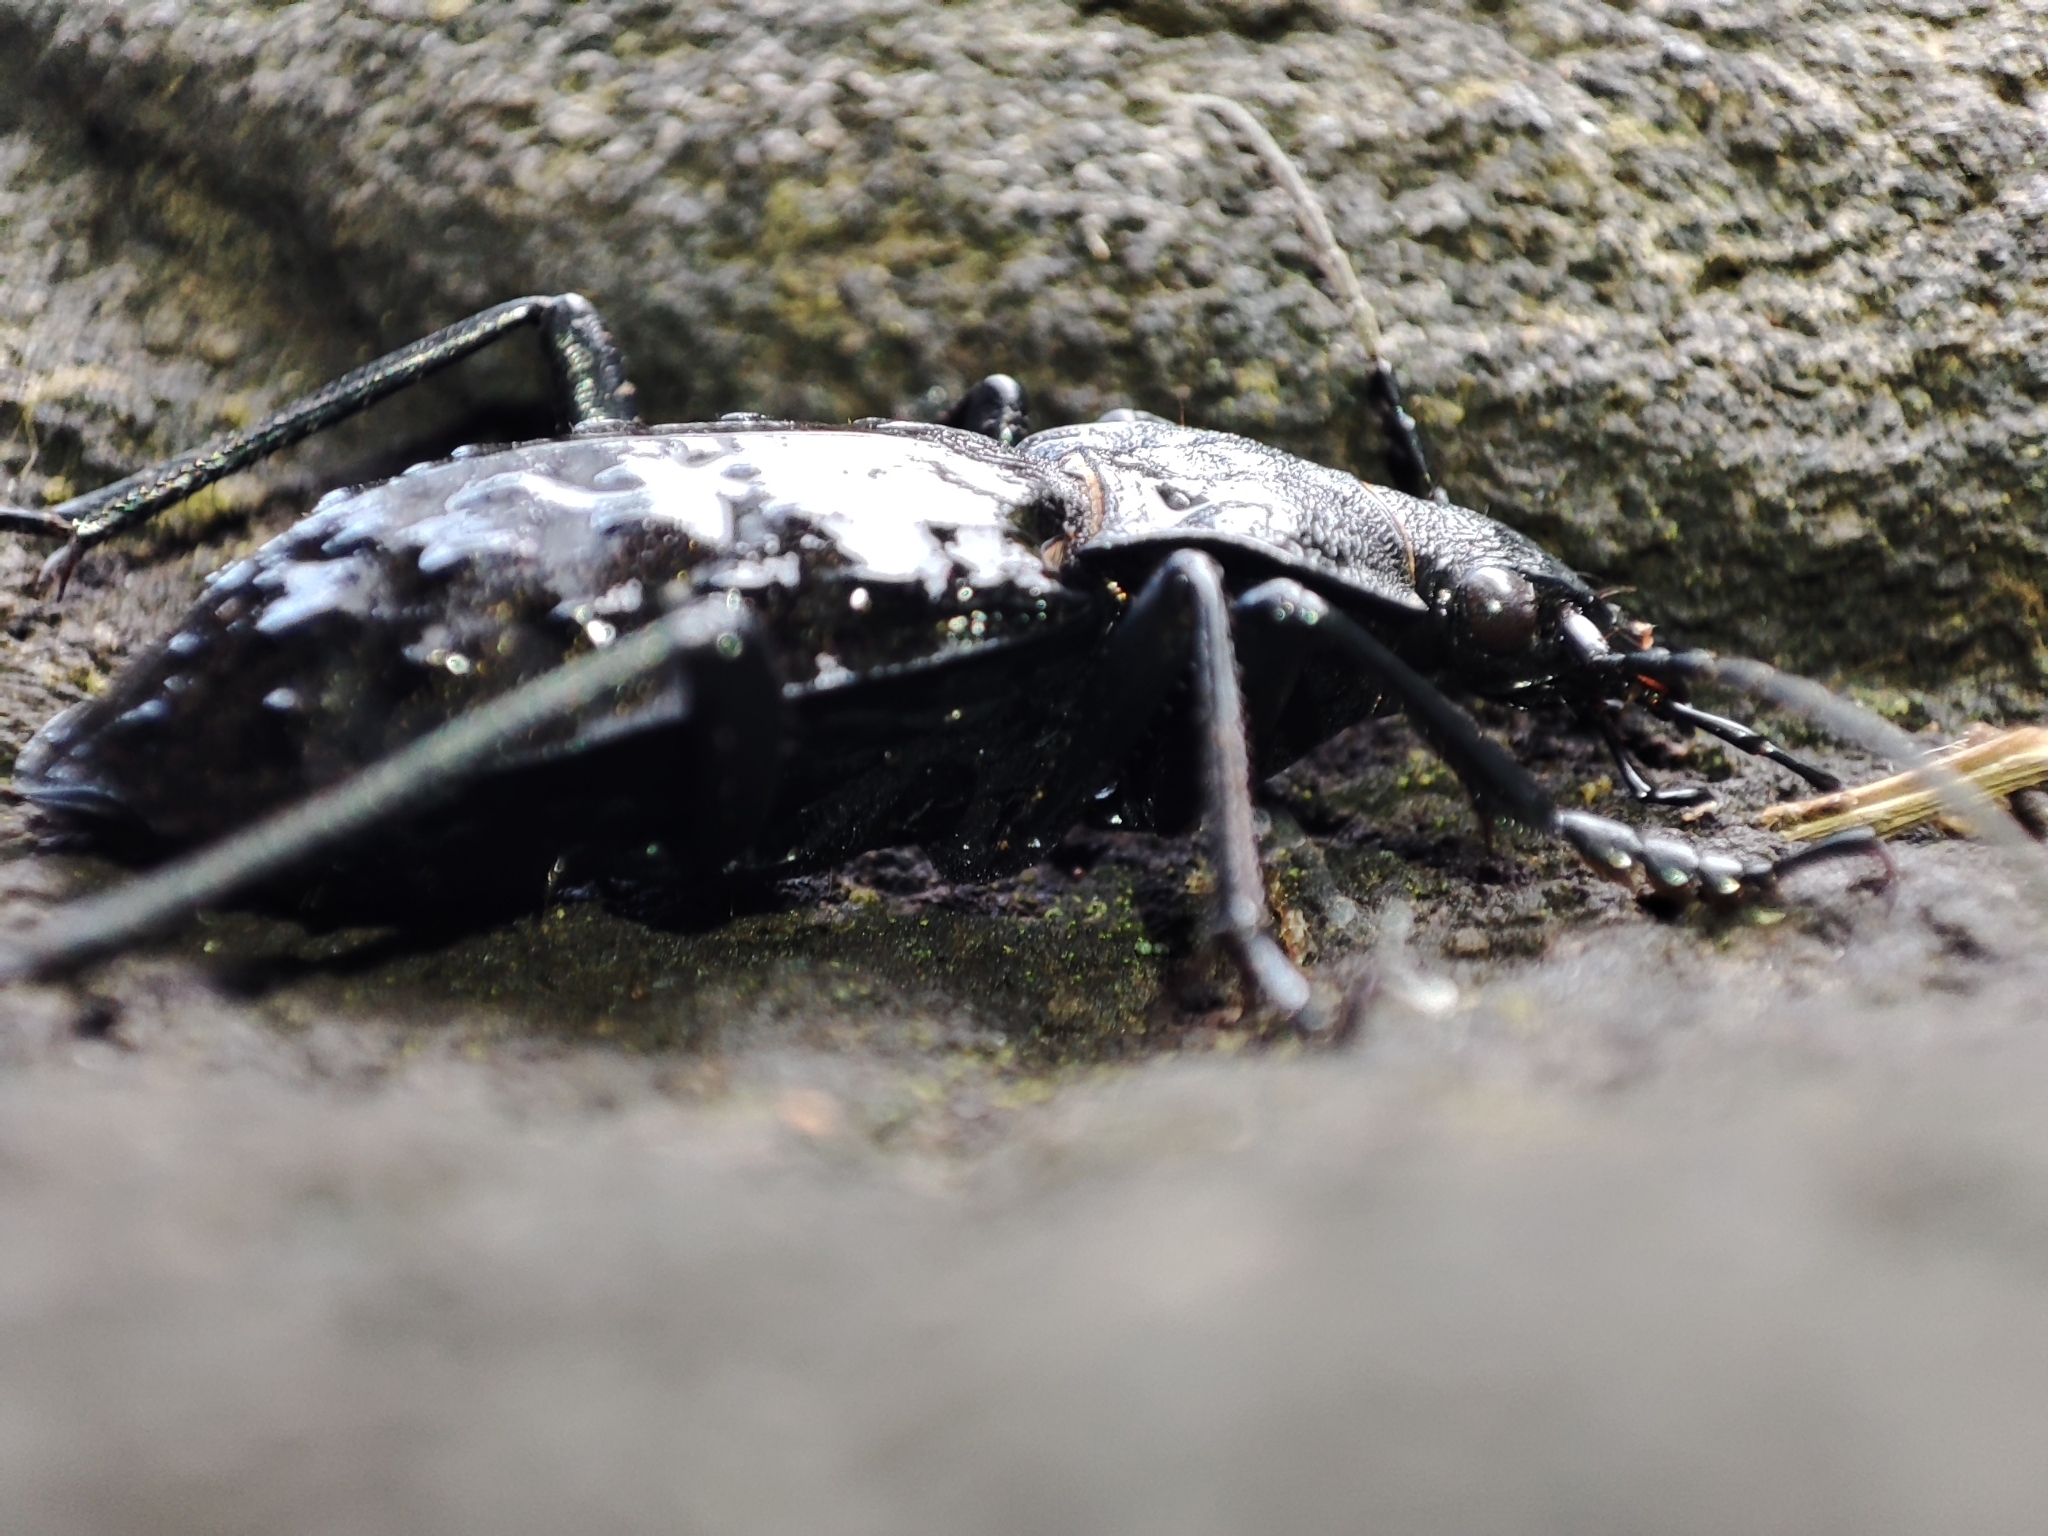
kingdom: Animalia
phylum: Arthropoda
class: Insecta
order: Coleoptera
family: Carabidae
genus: Carabus
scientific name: Carabus variolosus
